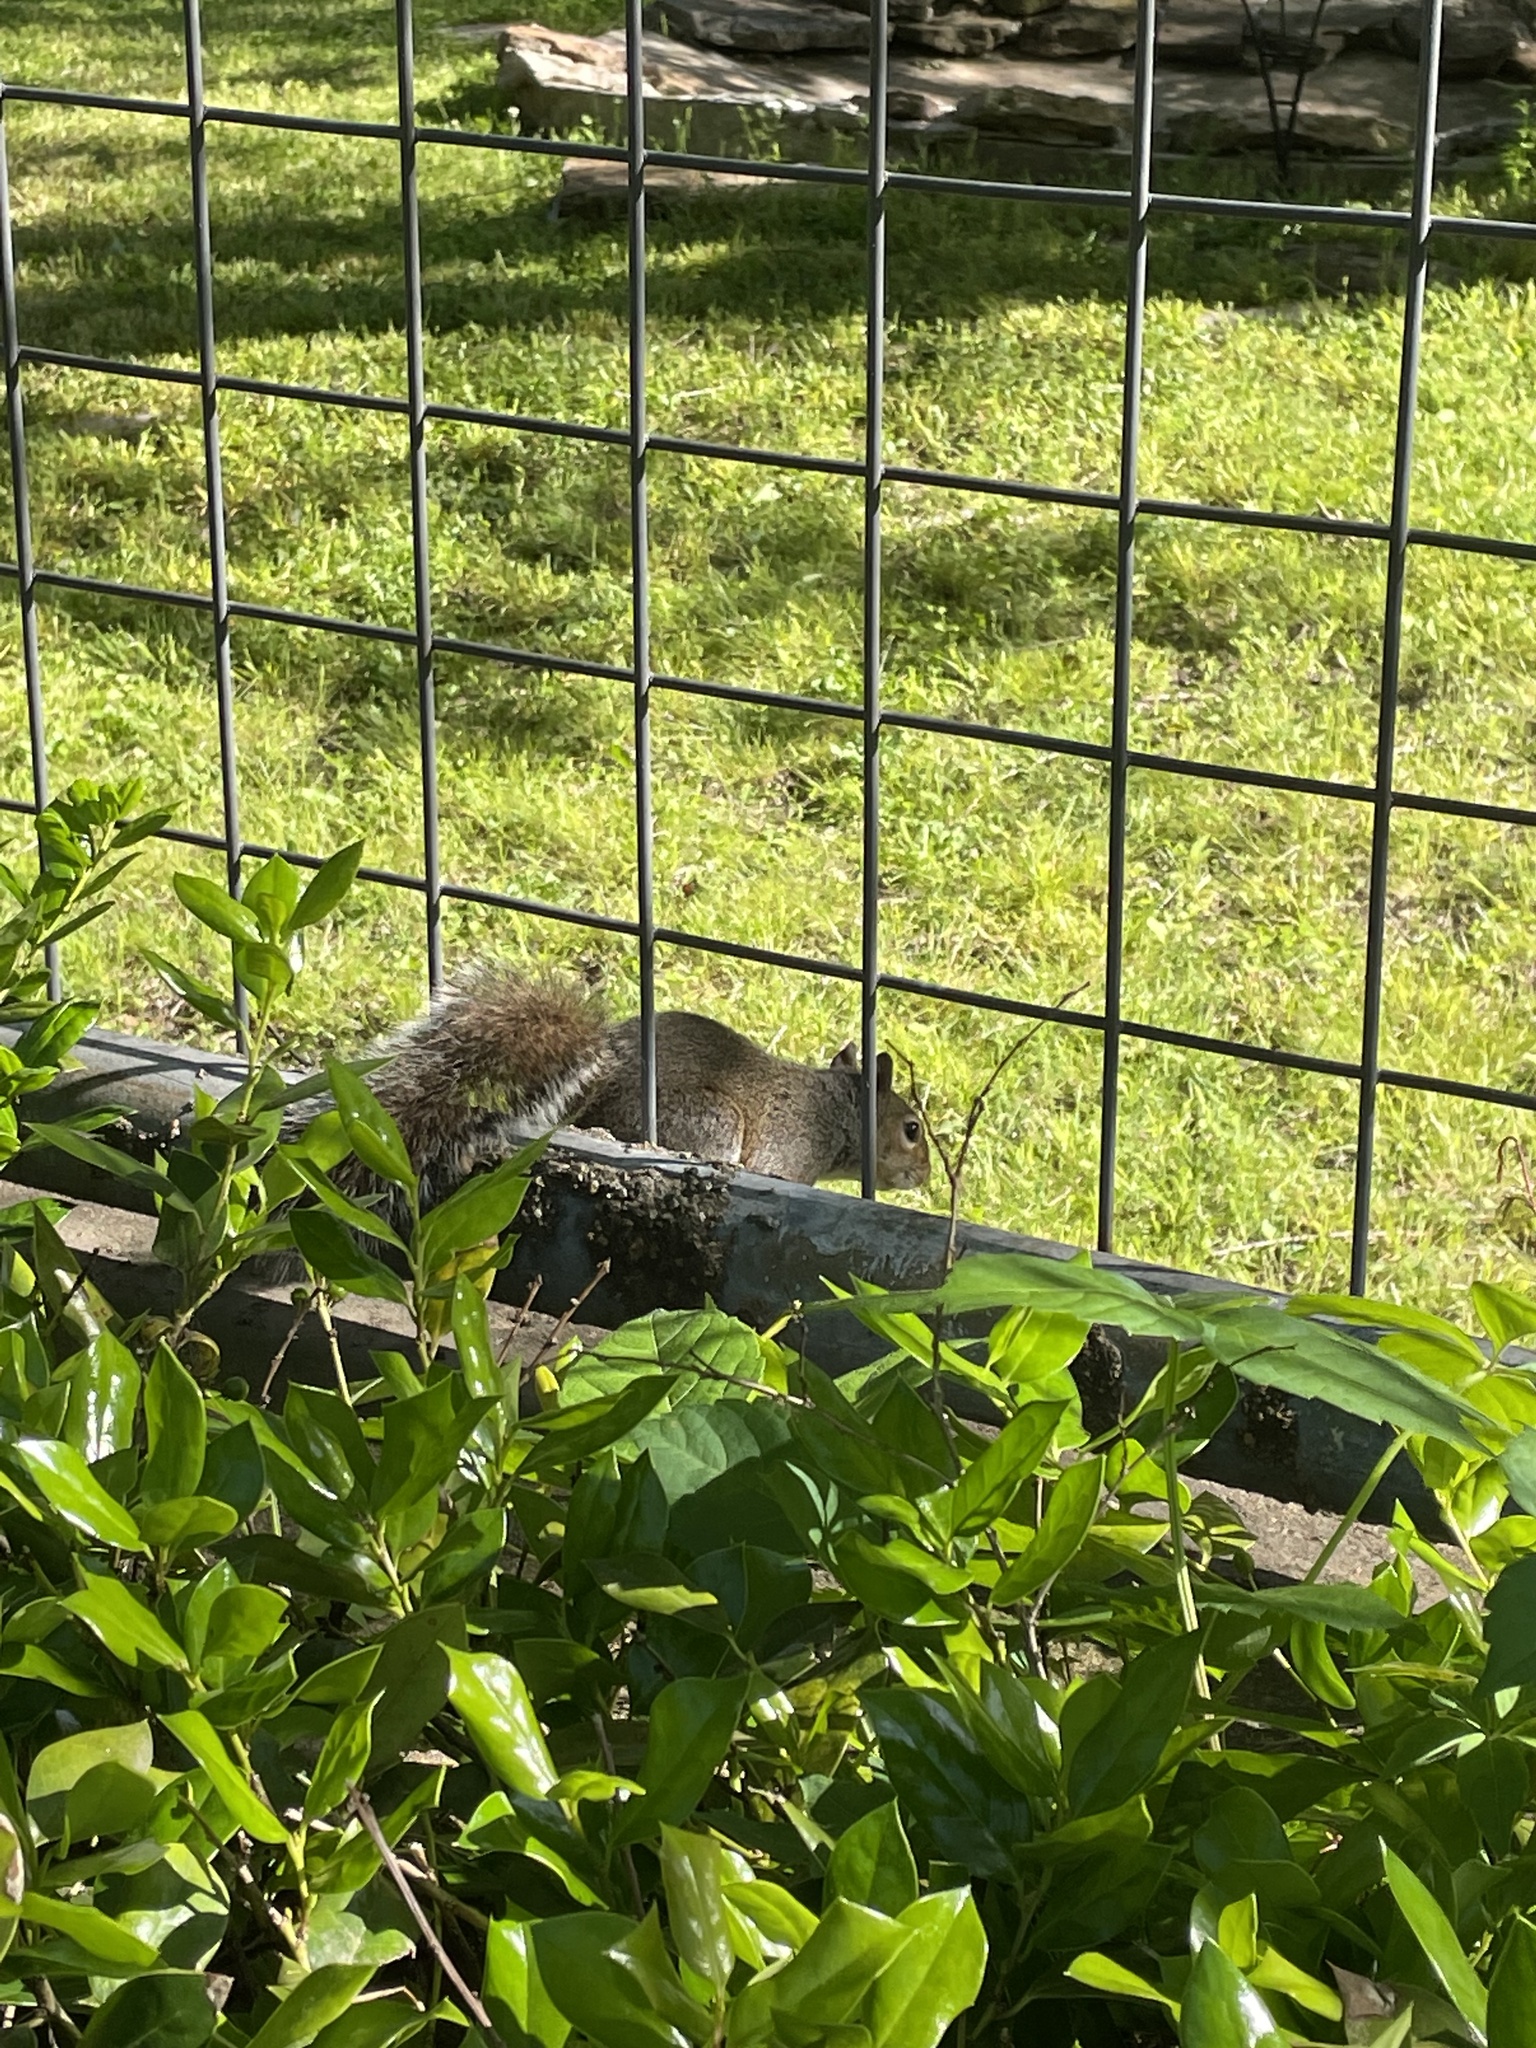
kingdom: Animalia
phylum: Chordata
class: Mammalia
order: Rodentia
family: Sciuridae
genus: Sciurus
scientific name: Sciurus carolinensis
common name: Eastern gray squirrel
